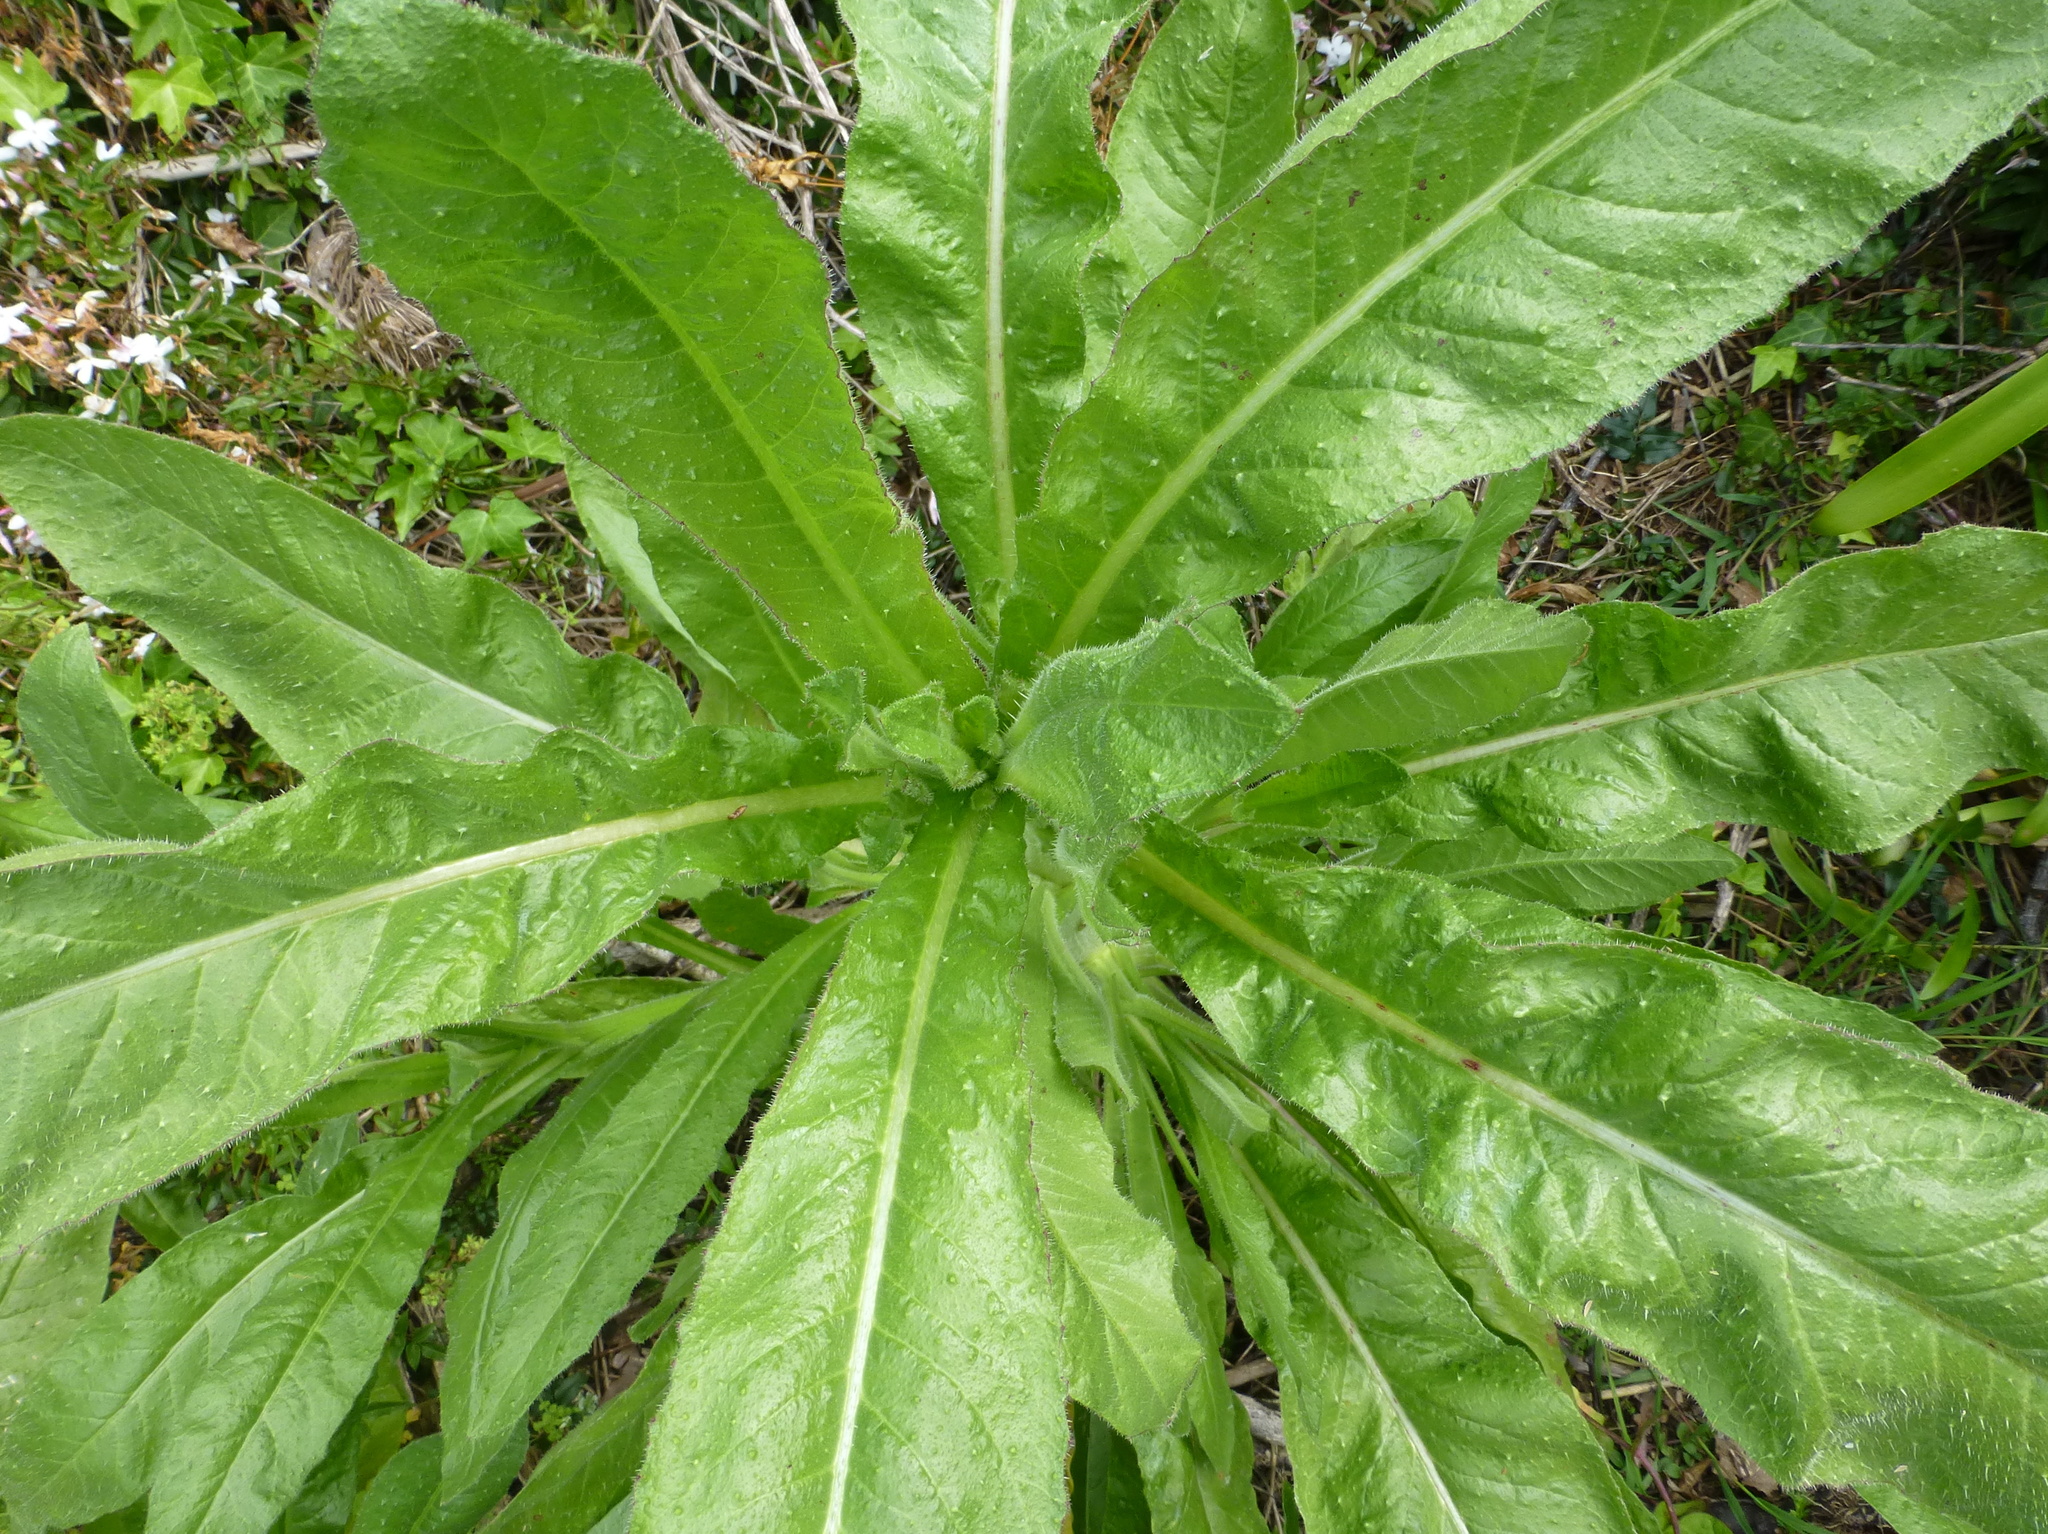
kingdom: Plantae
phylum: Tracheophyta
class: Magnoliopsida
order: Asterales
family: Asteraceae
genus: Helminthotheca
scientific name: Helminthotheca echioides
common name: Ox-tongue
